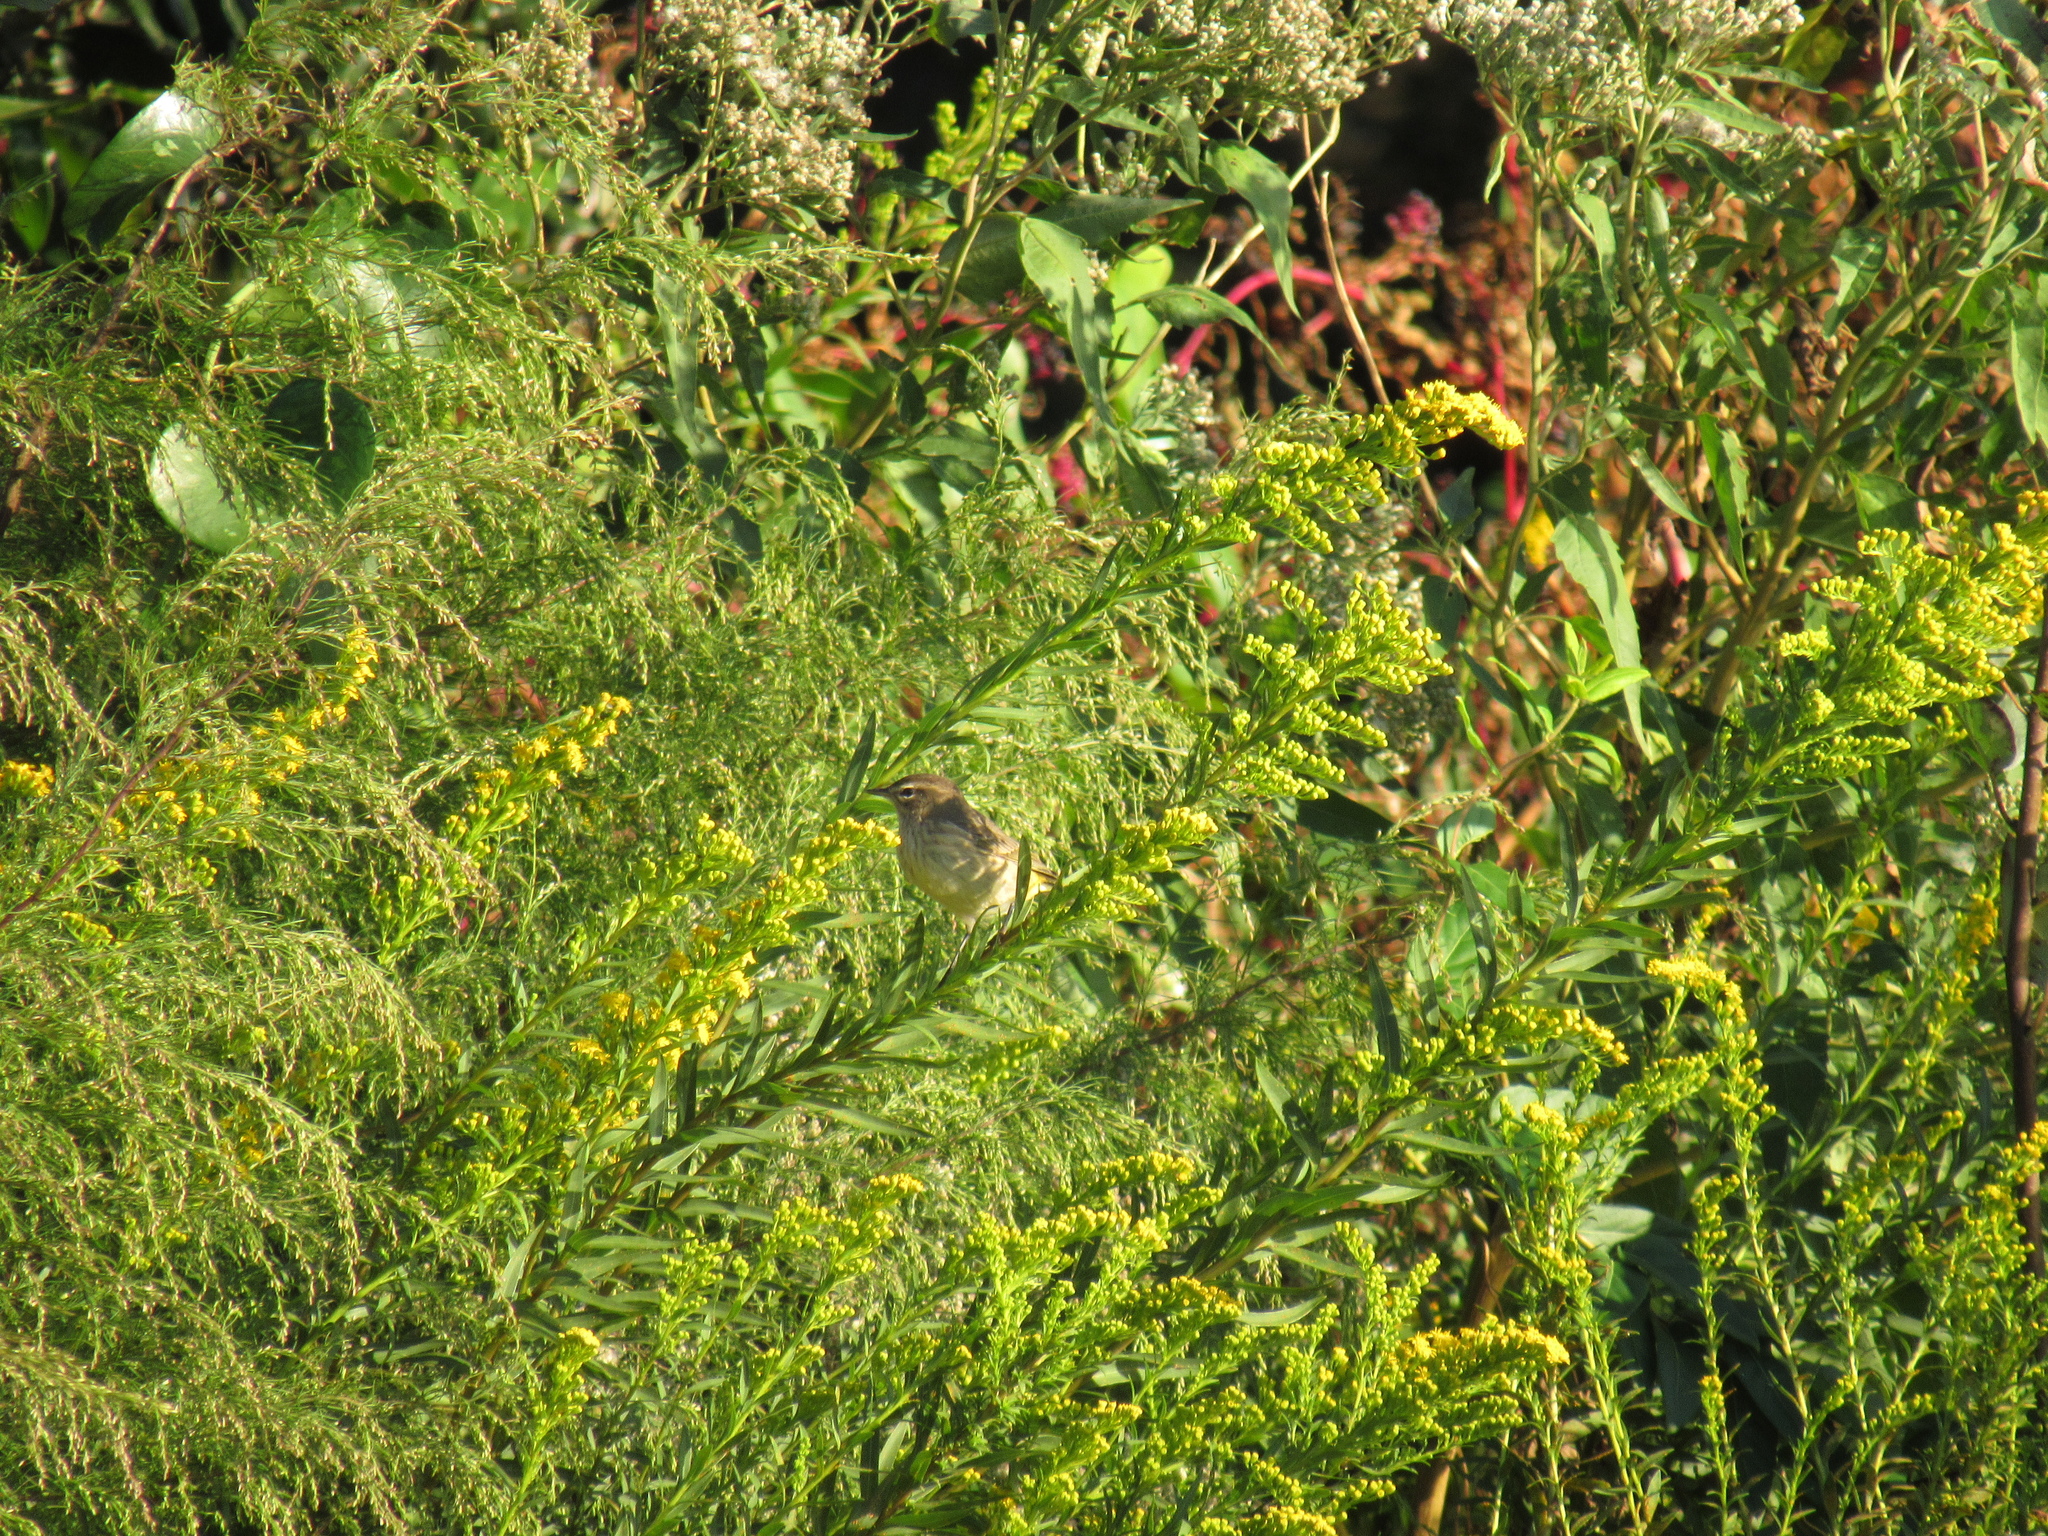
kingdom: Animalia
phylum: Chordata
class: Aves
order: Passeriformes
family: Parulidae
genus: Setophaga
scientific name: Setophaga palmarum
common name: Palm warbler
